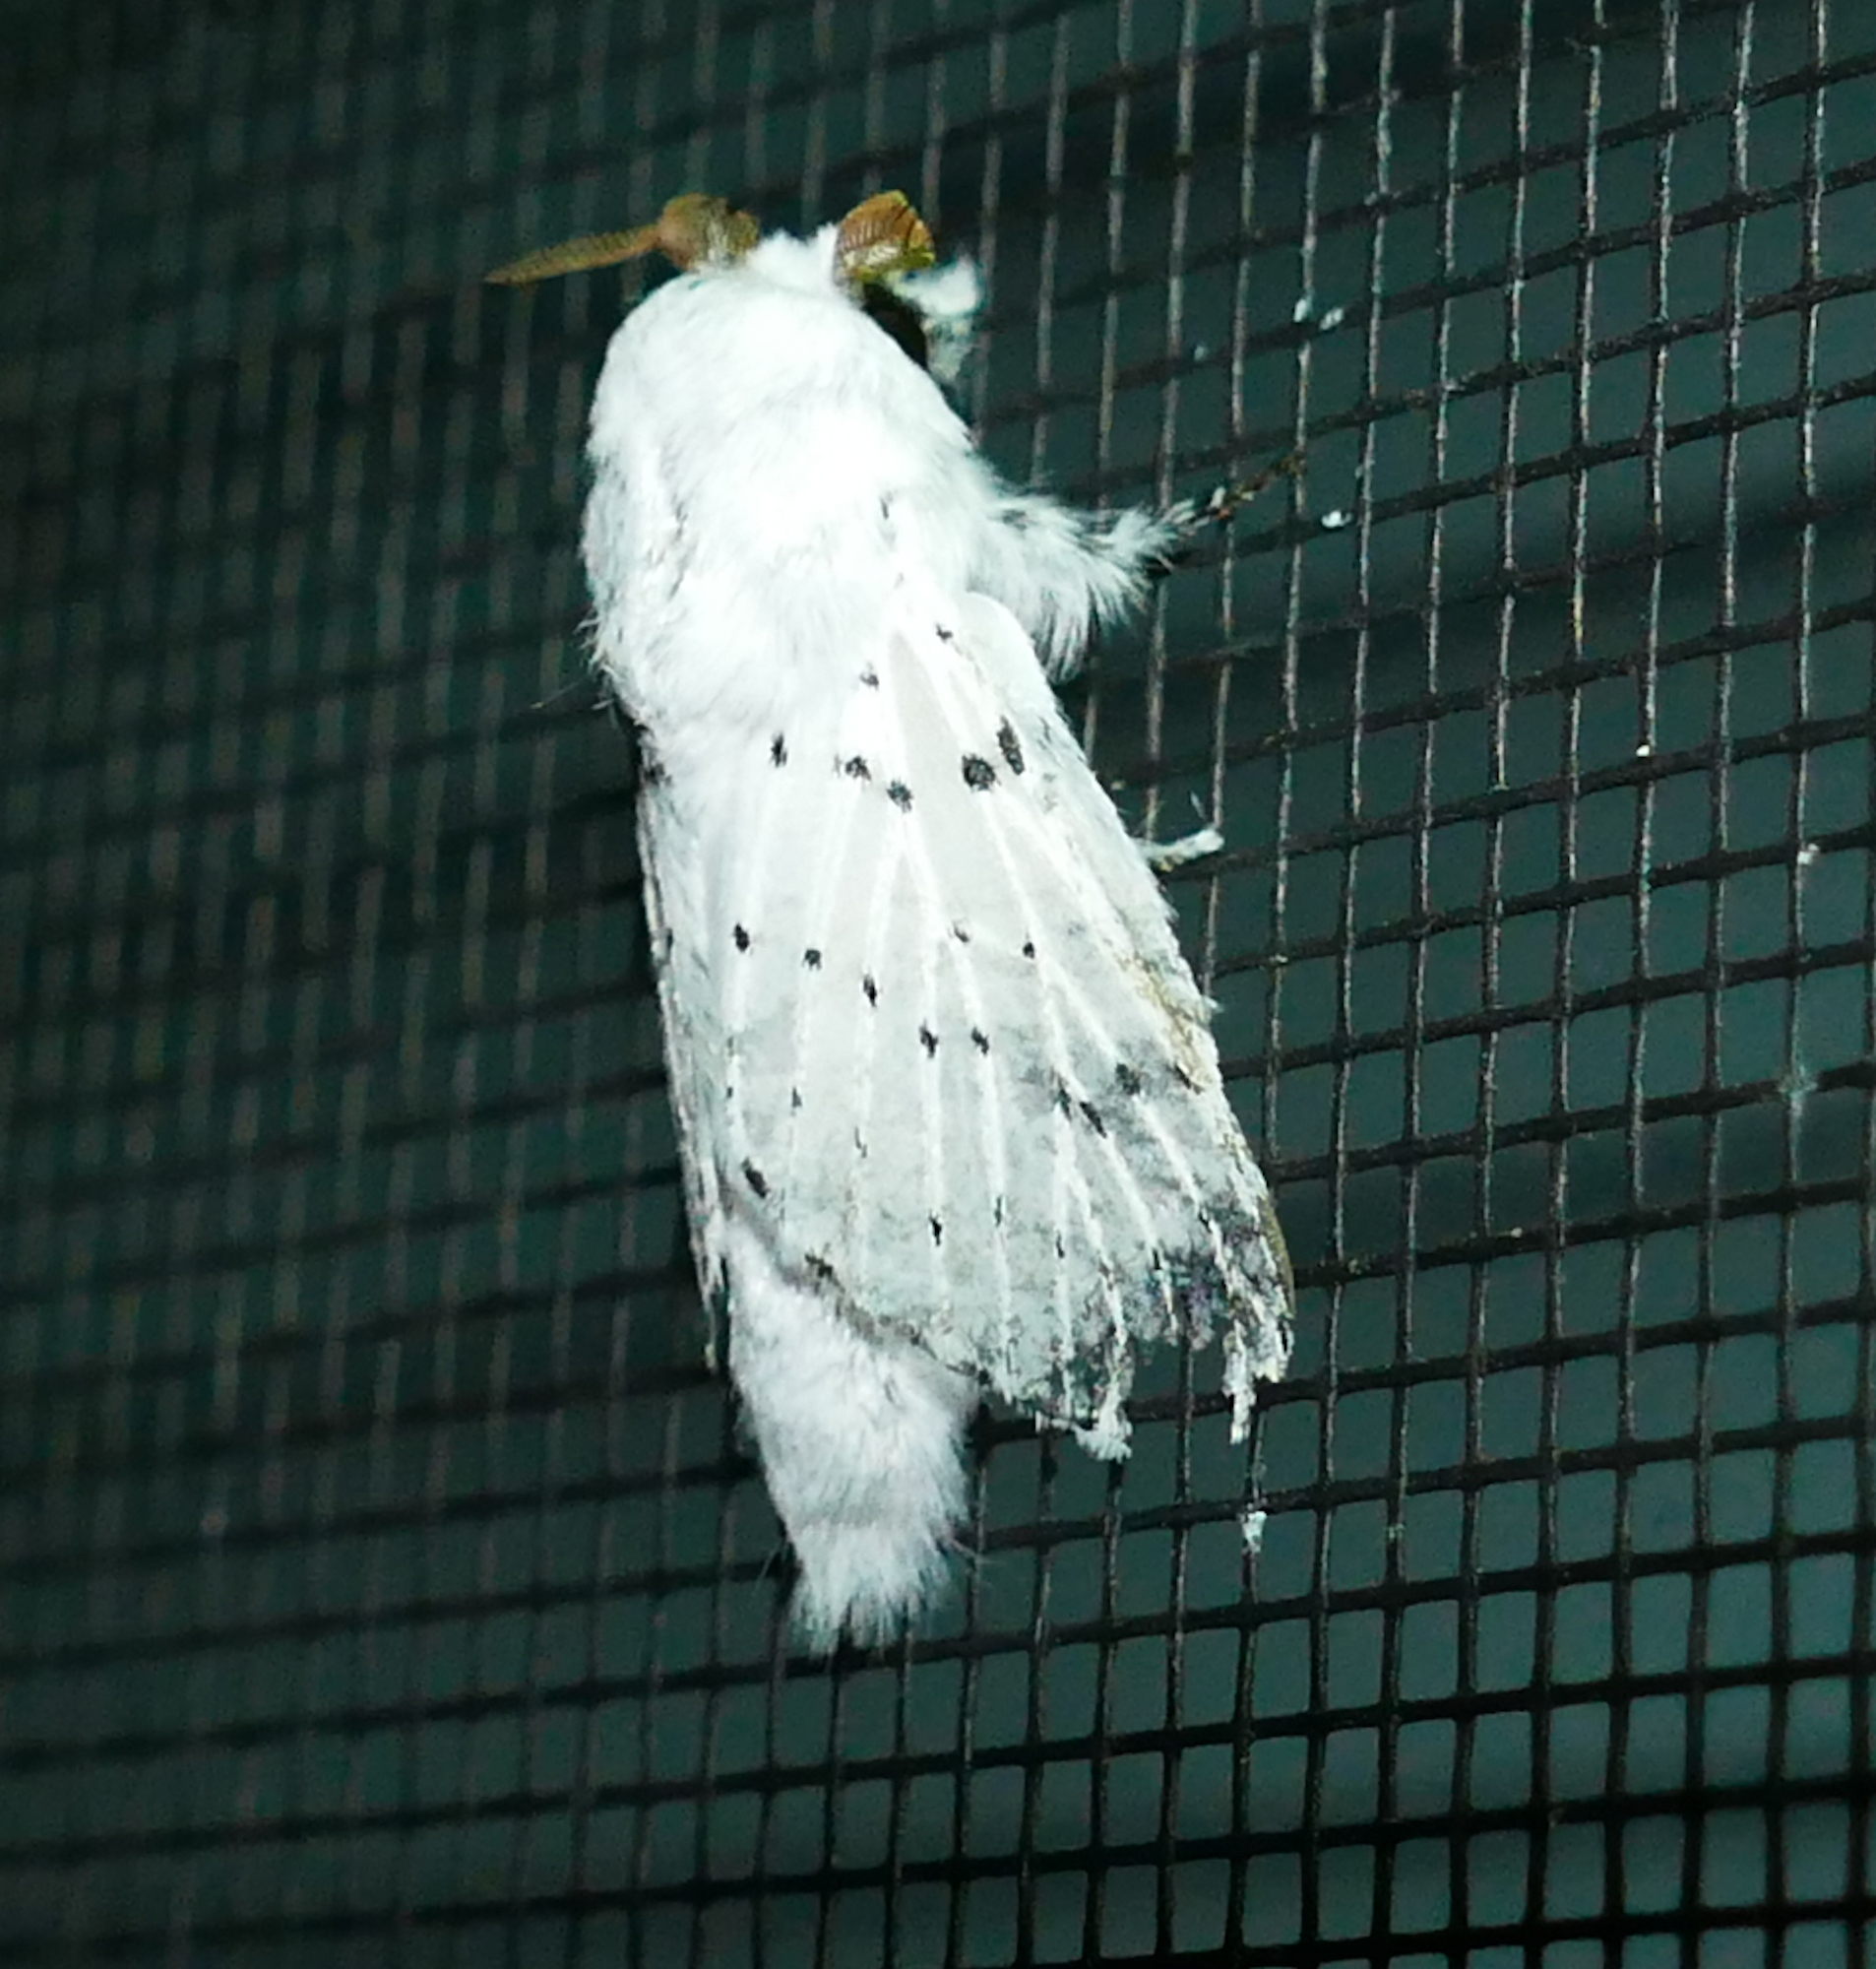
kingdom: Animalia
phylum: Arthropoda
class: Insecta
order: Lepidoptera
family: Lasiocampidae
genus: Artace
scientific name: Artace cribrarius
